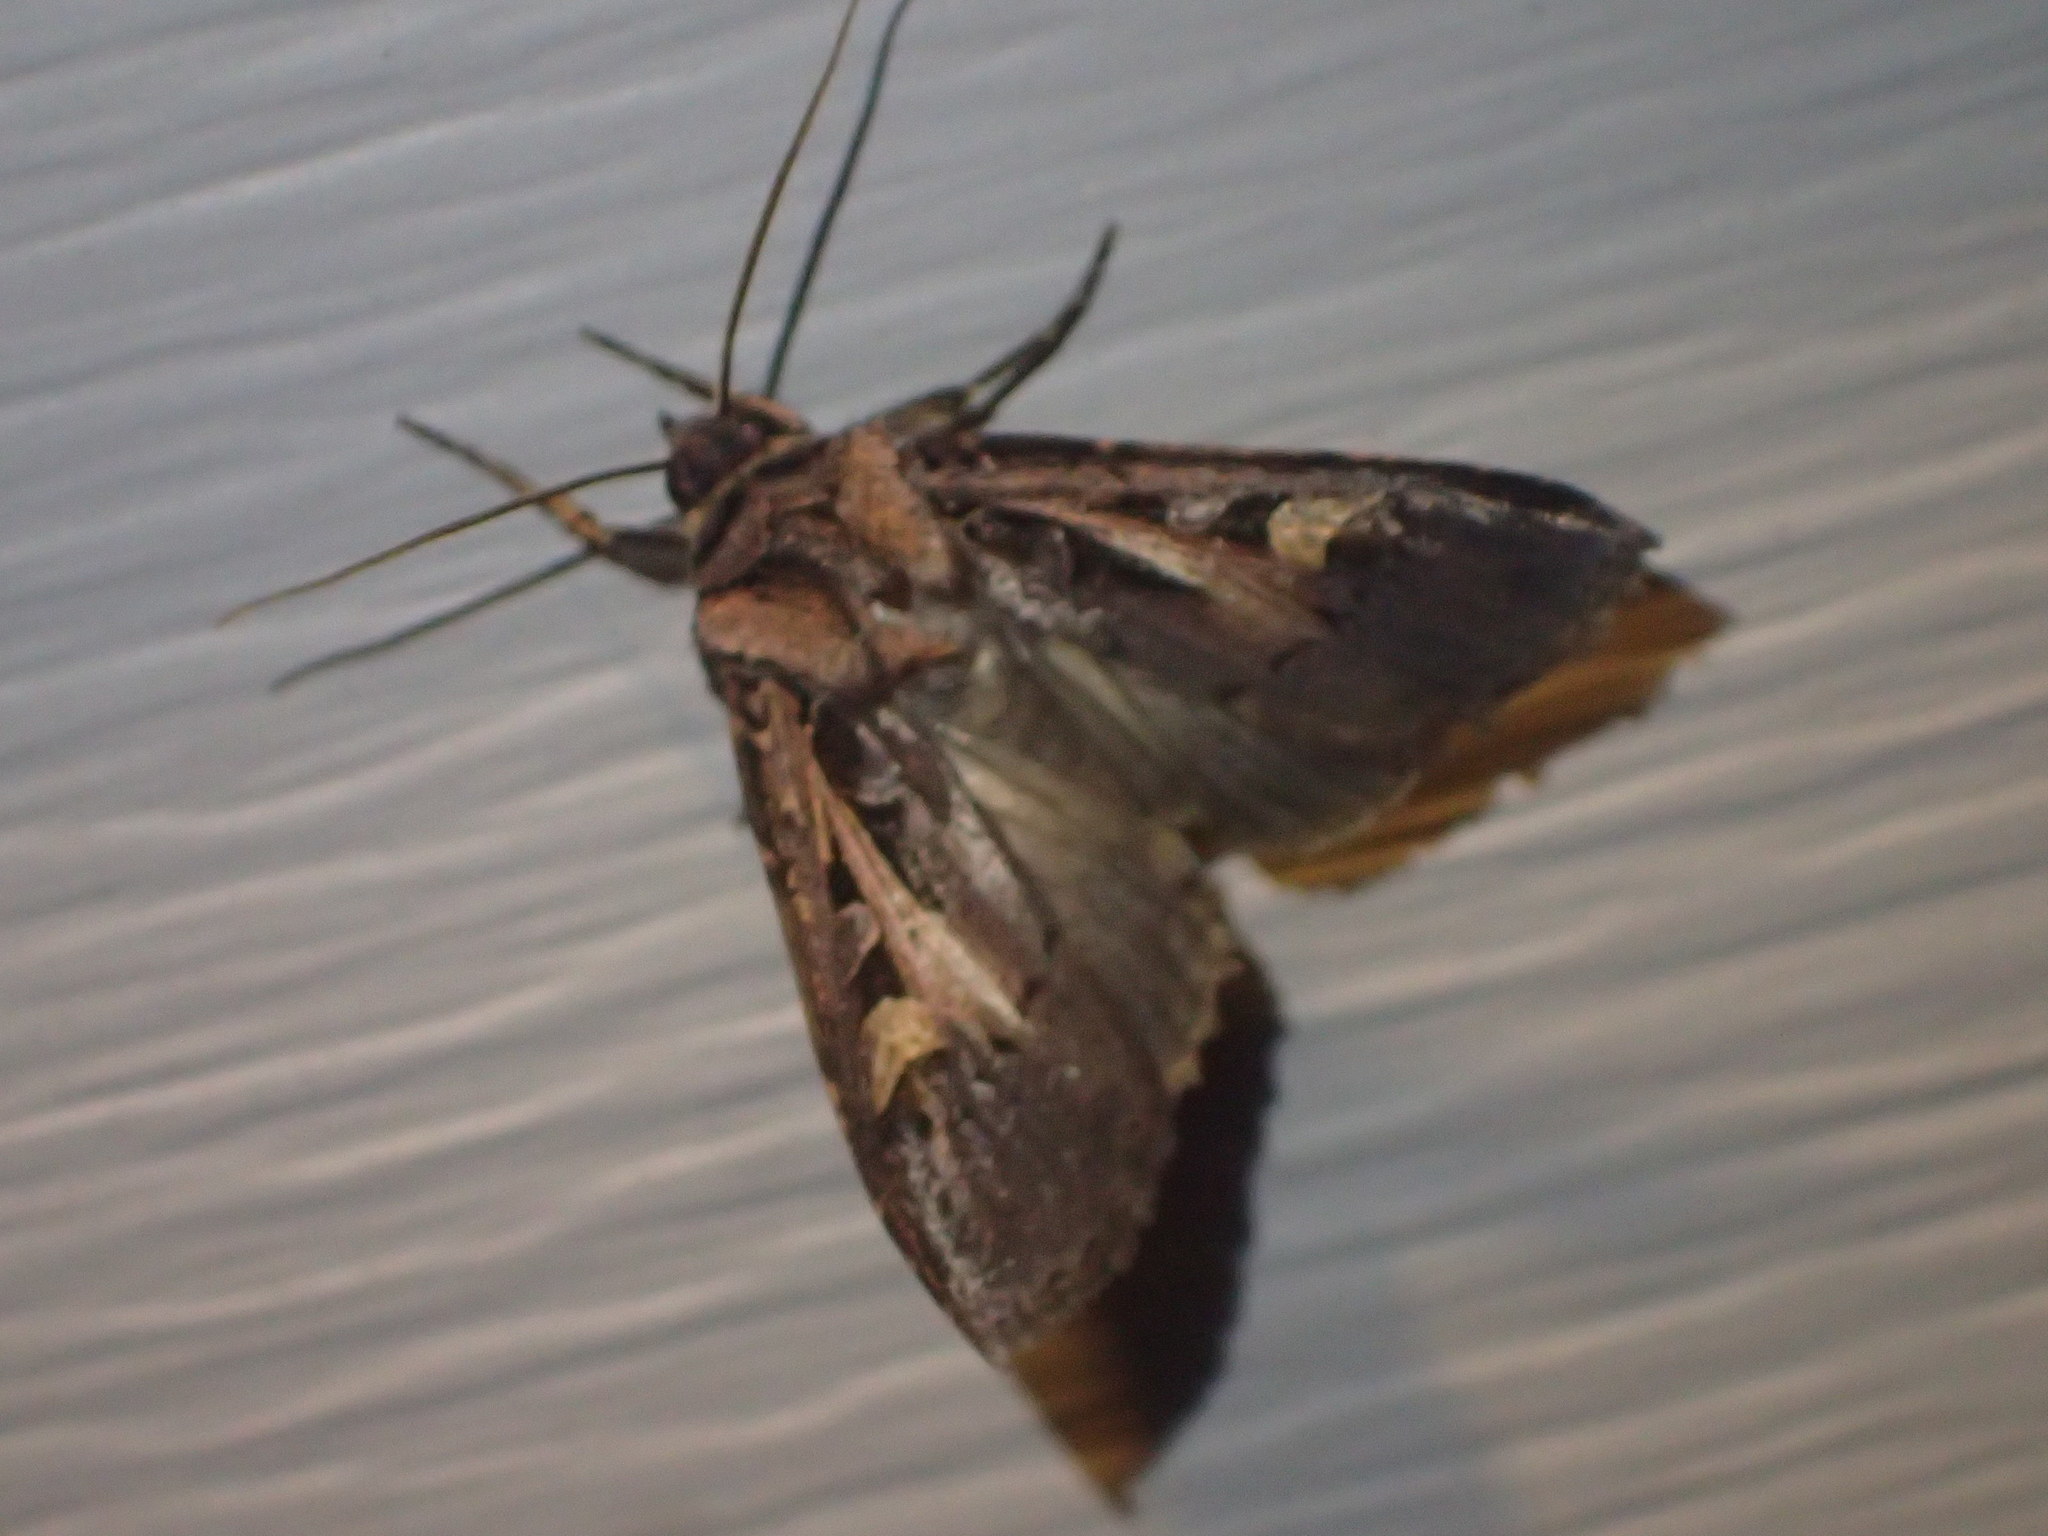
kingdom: Animalia
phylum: Arthropoda
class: Insecta
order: Lepidoptera
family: Noctuidae
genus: Feltia
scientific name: Feltia herilis
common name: Master's dart
